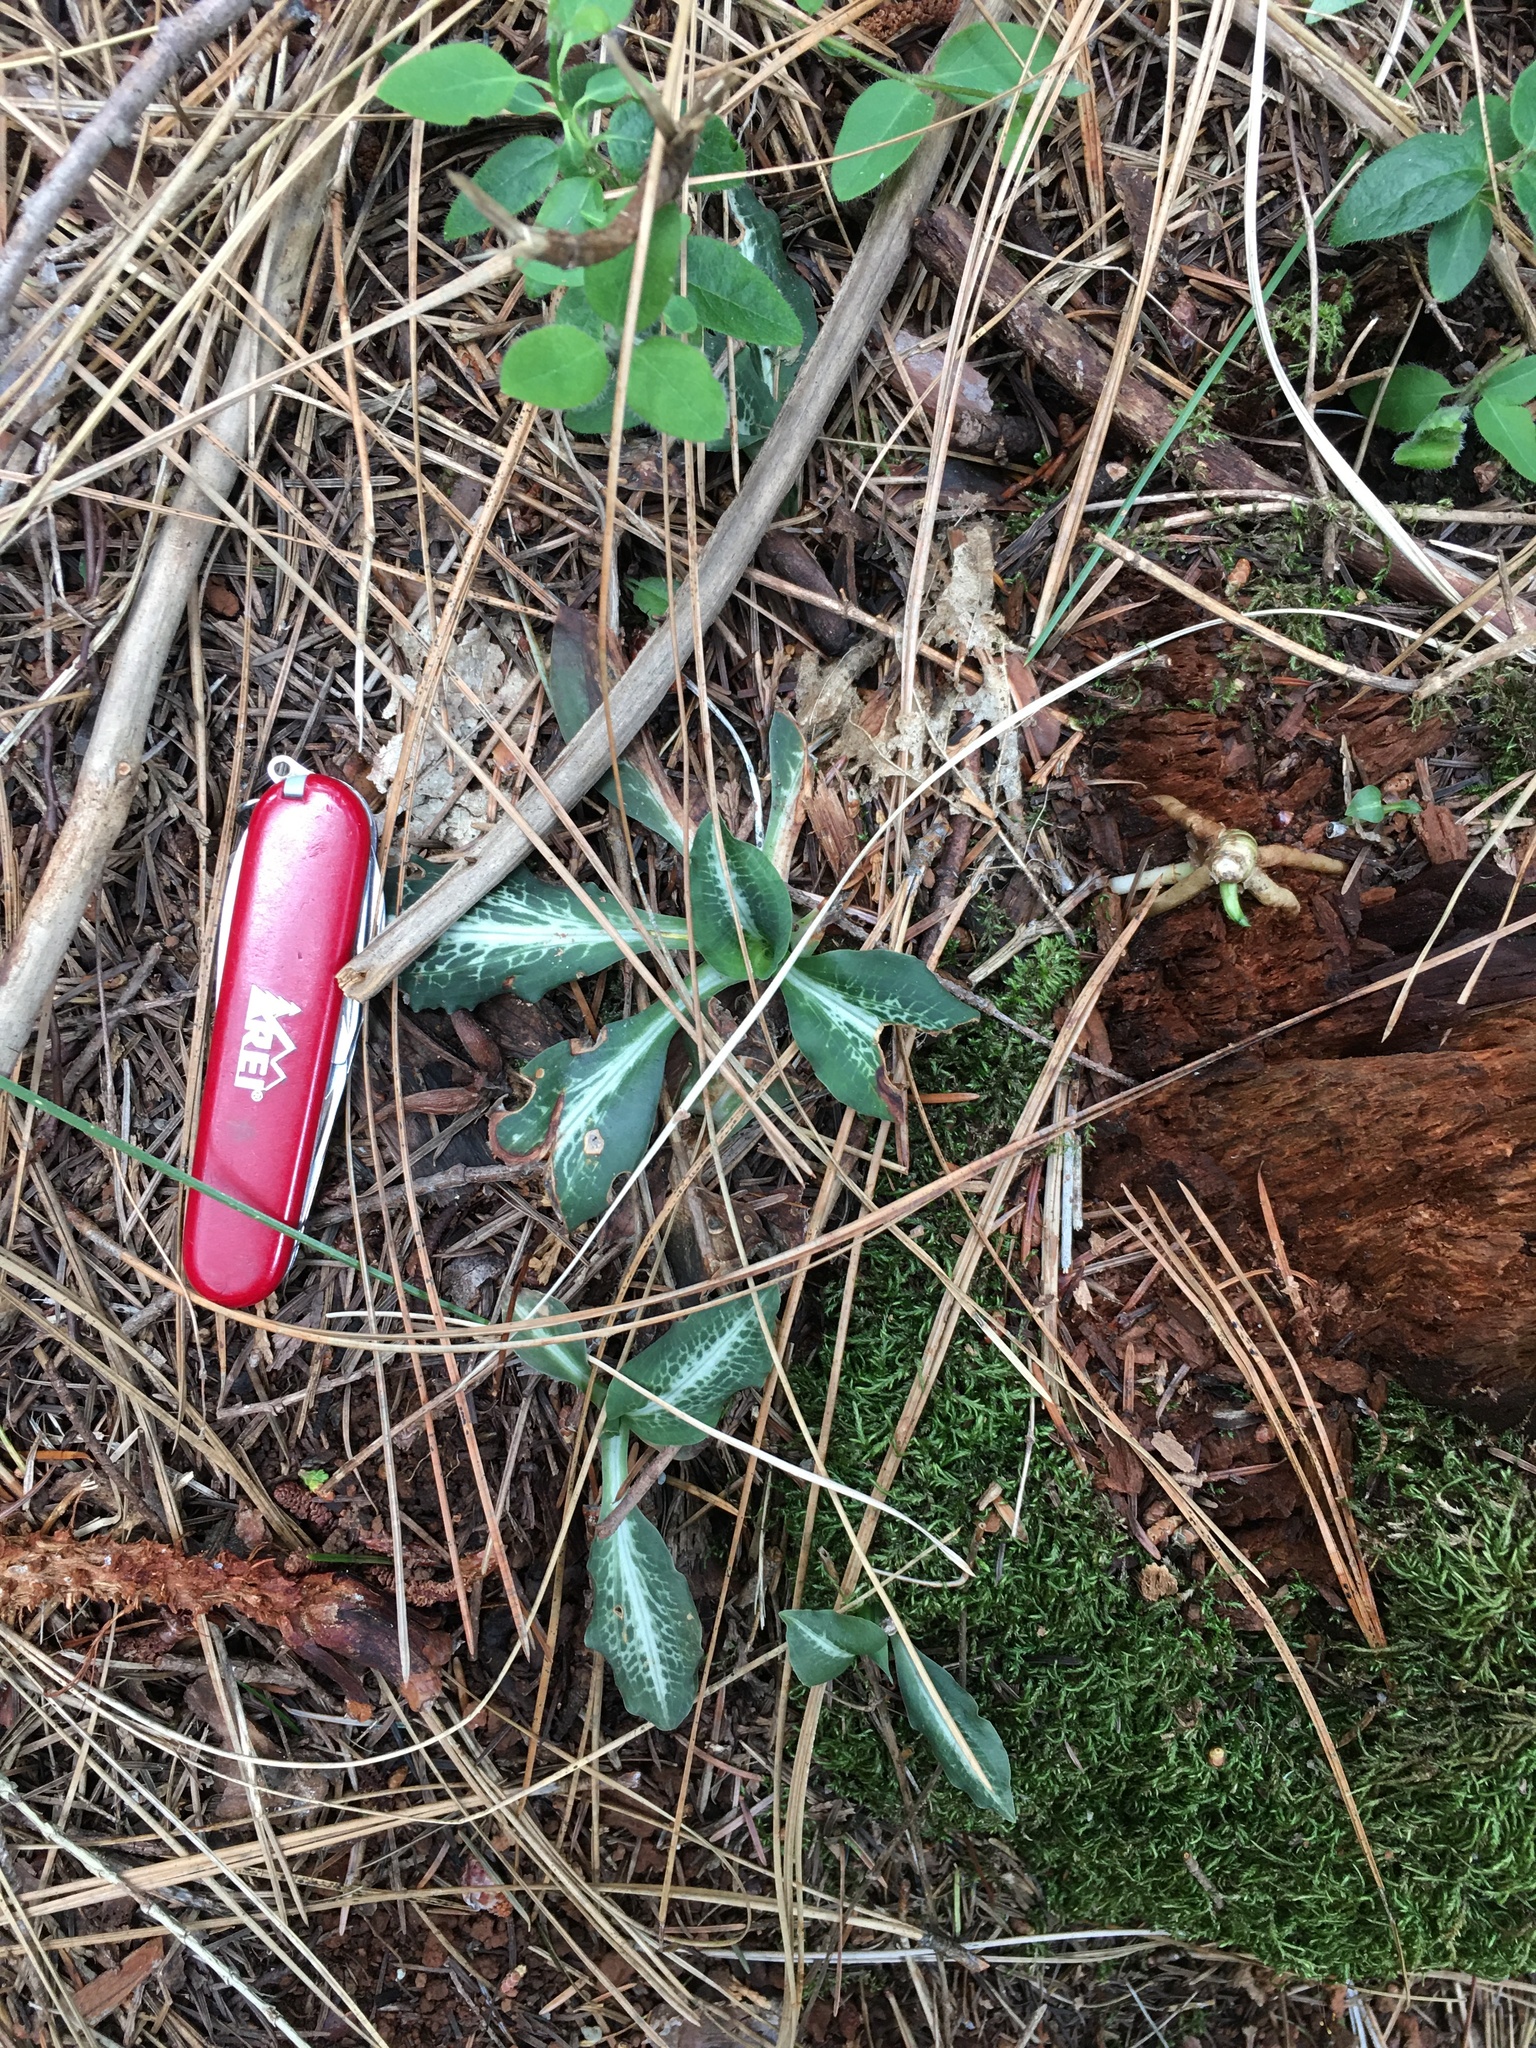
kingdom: Plantae
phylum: Tracheophyta
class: Liliopsida
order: Asparagales
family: Orchidaceae
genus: Goodyera
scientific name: Goodyera oblongifolia
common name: Giant rattlesnake-plantain
